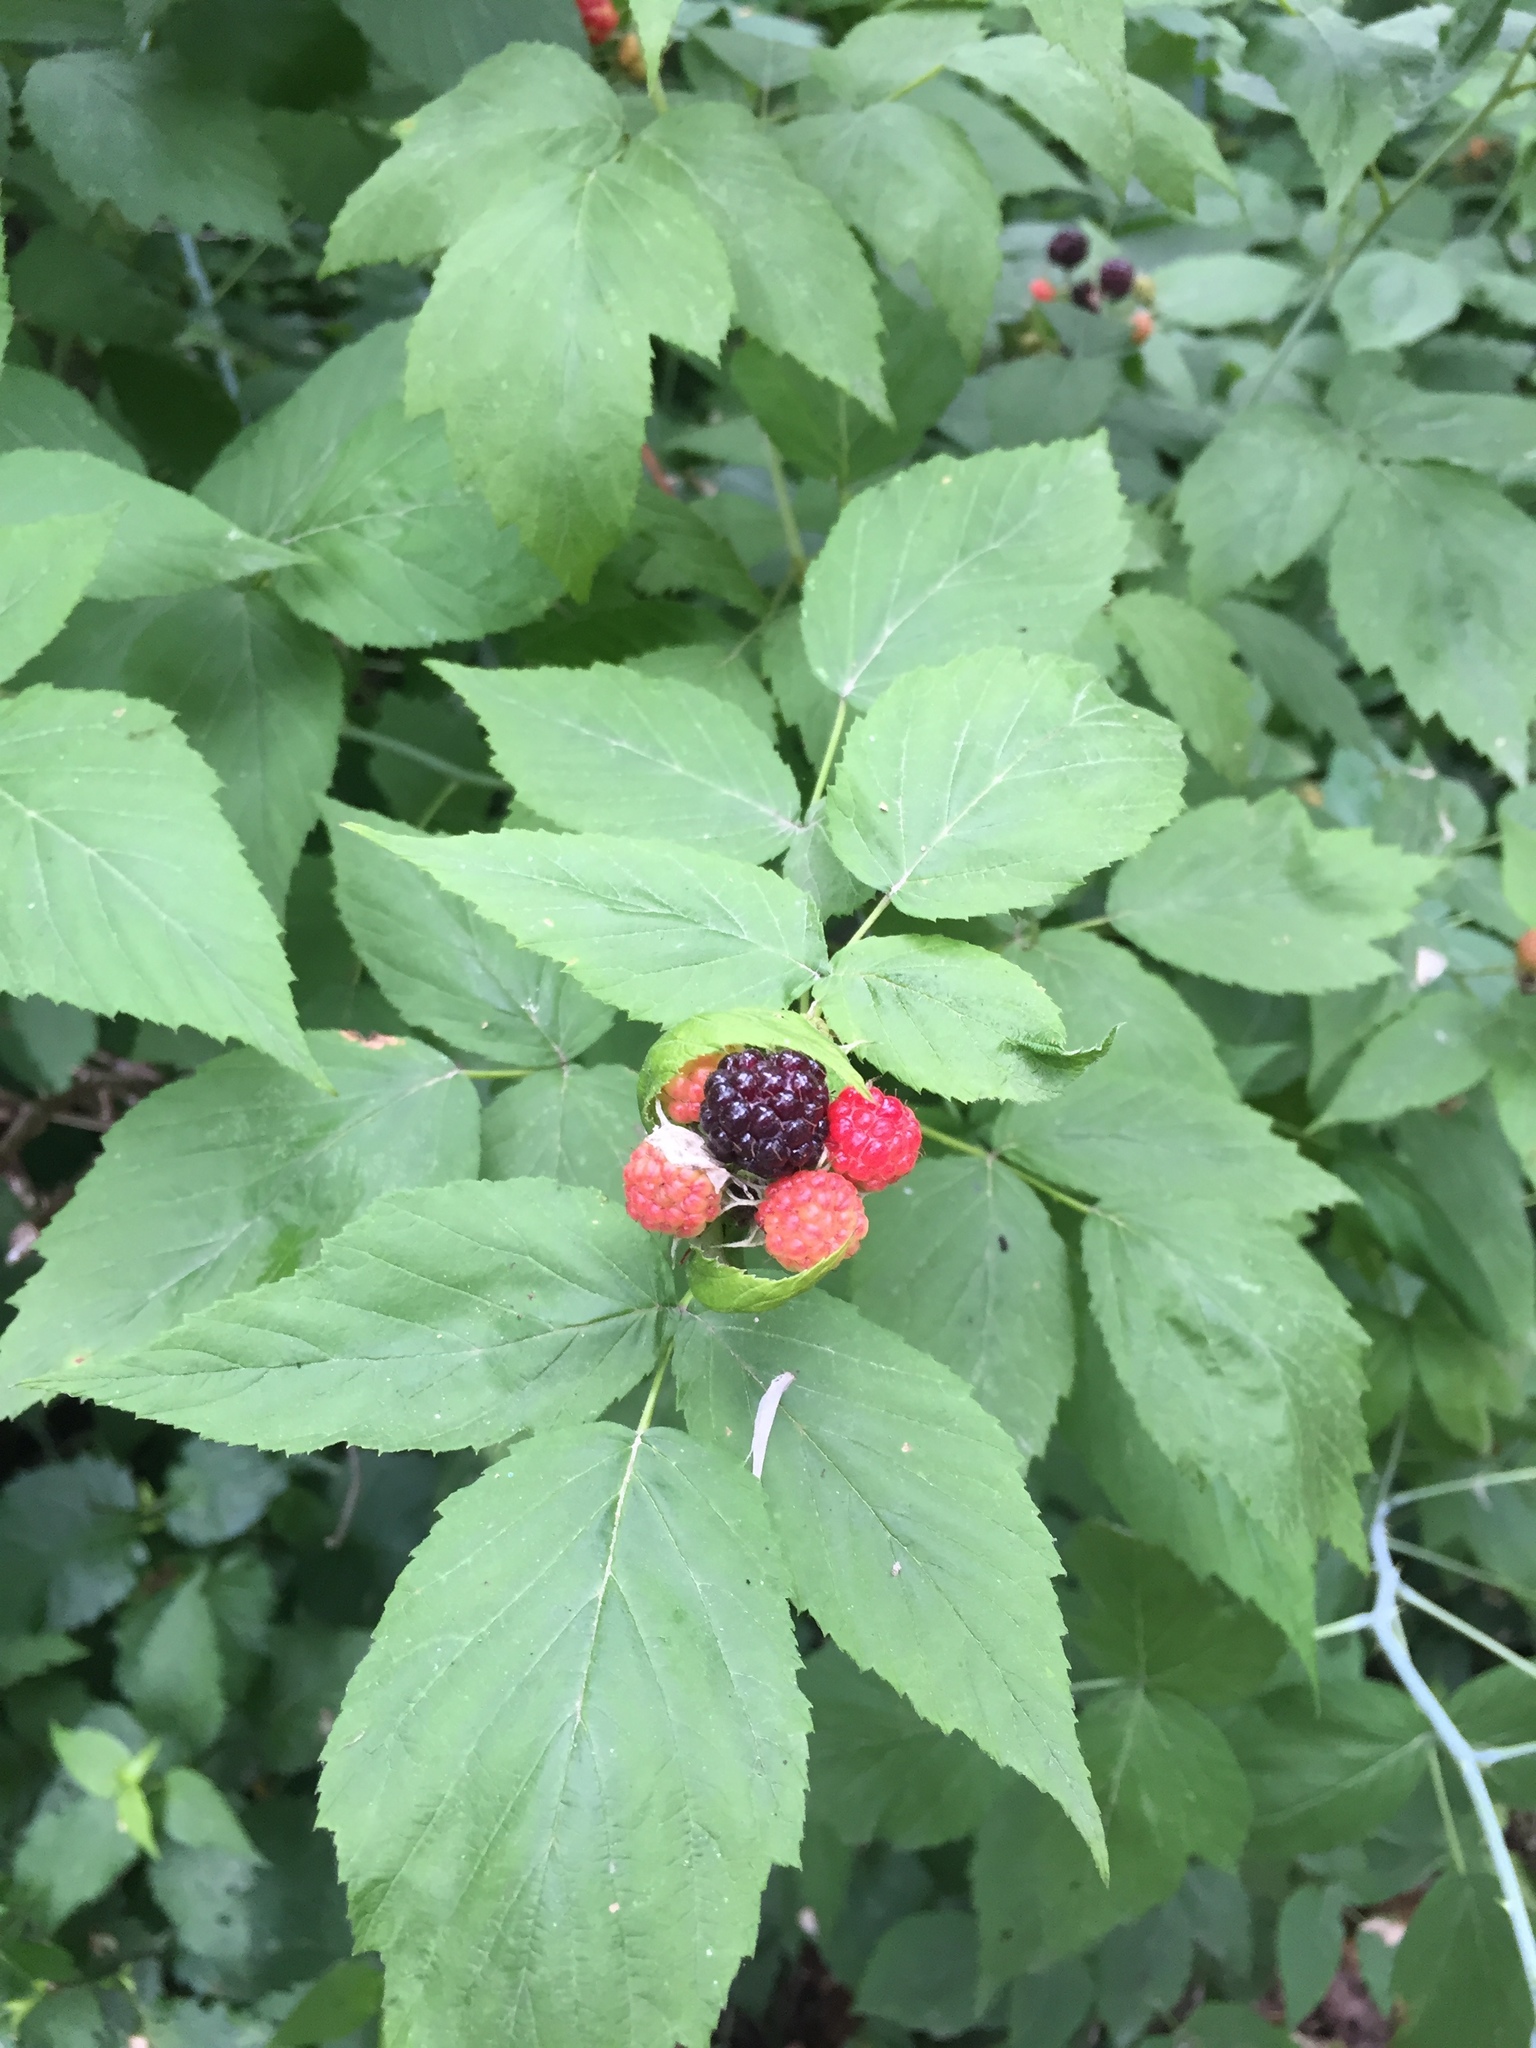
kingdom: Plantae
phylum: Tracheophyta
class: Magnoliopsida
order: Rosales
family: Rosaceae
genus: Rubus
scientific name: Rubus occidentalis
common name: Black raspberry
